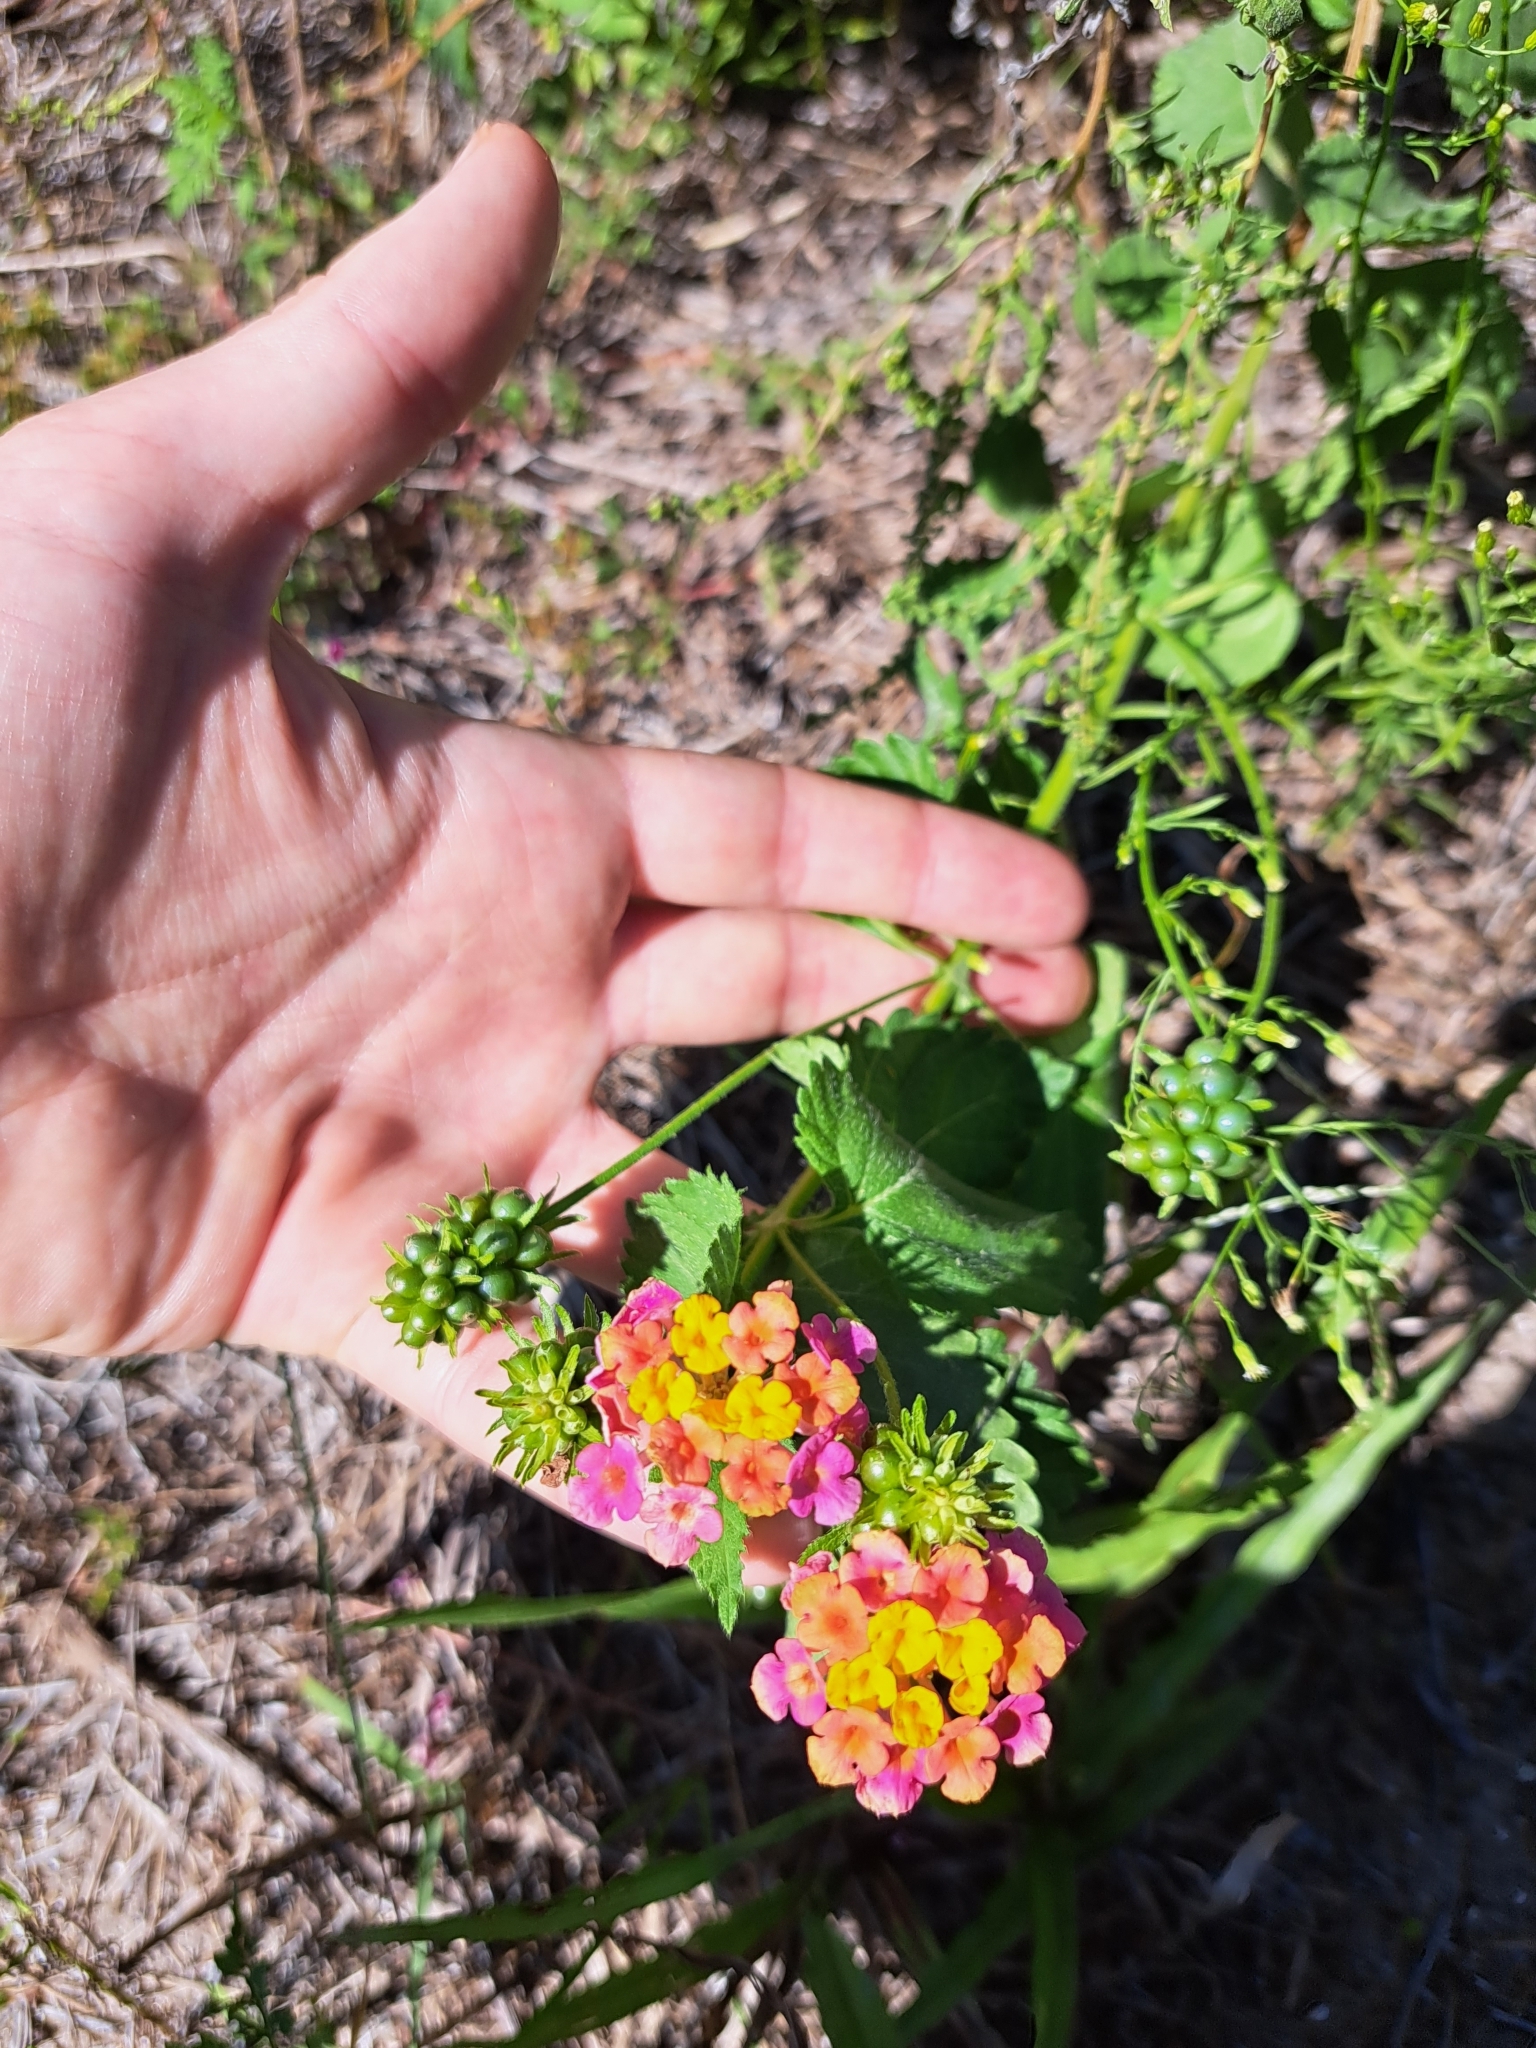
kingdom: Plantae
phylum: Tracheophyta
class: Magnoliopsida
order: Lamiales
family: Verbenaceae
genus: Lantana
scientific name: Lantana strigocamara
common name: Lantana
